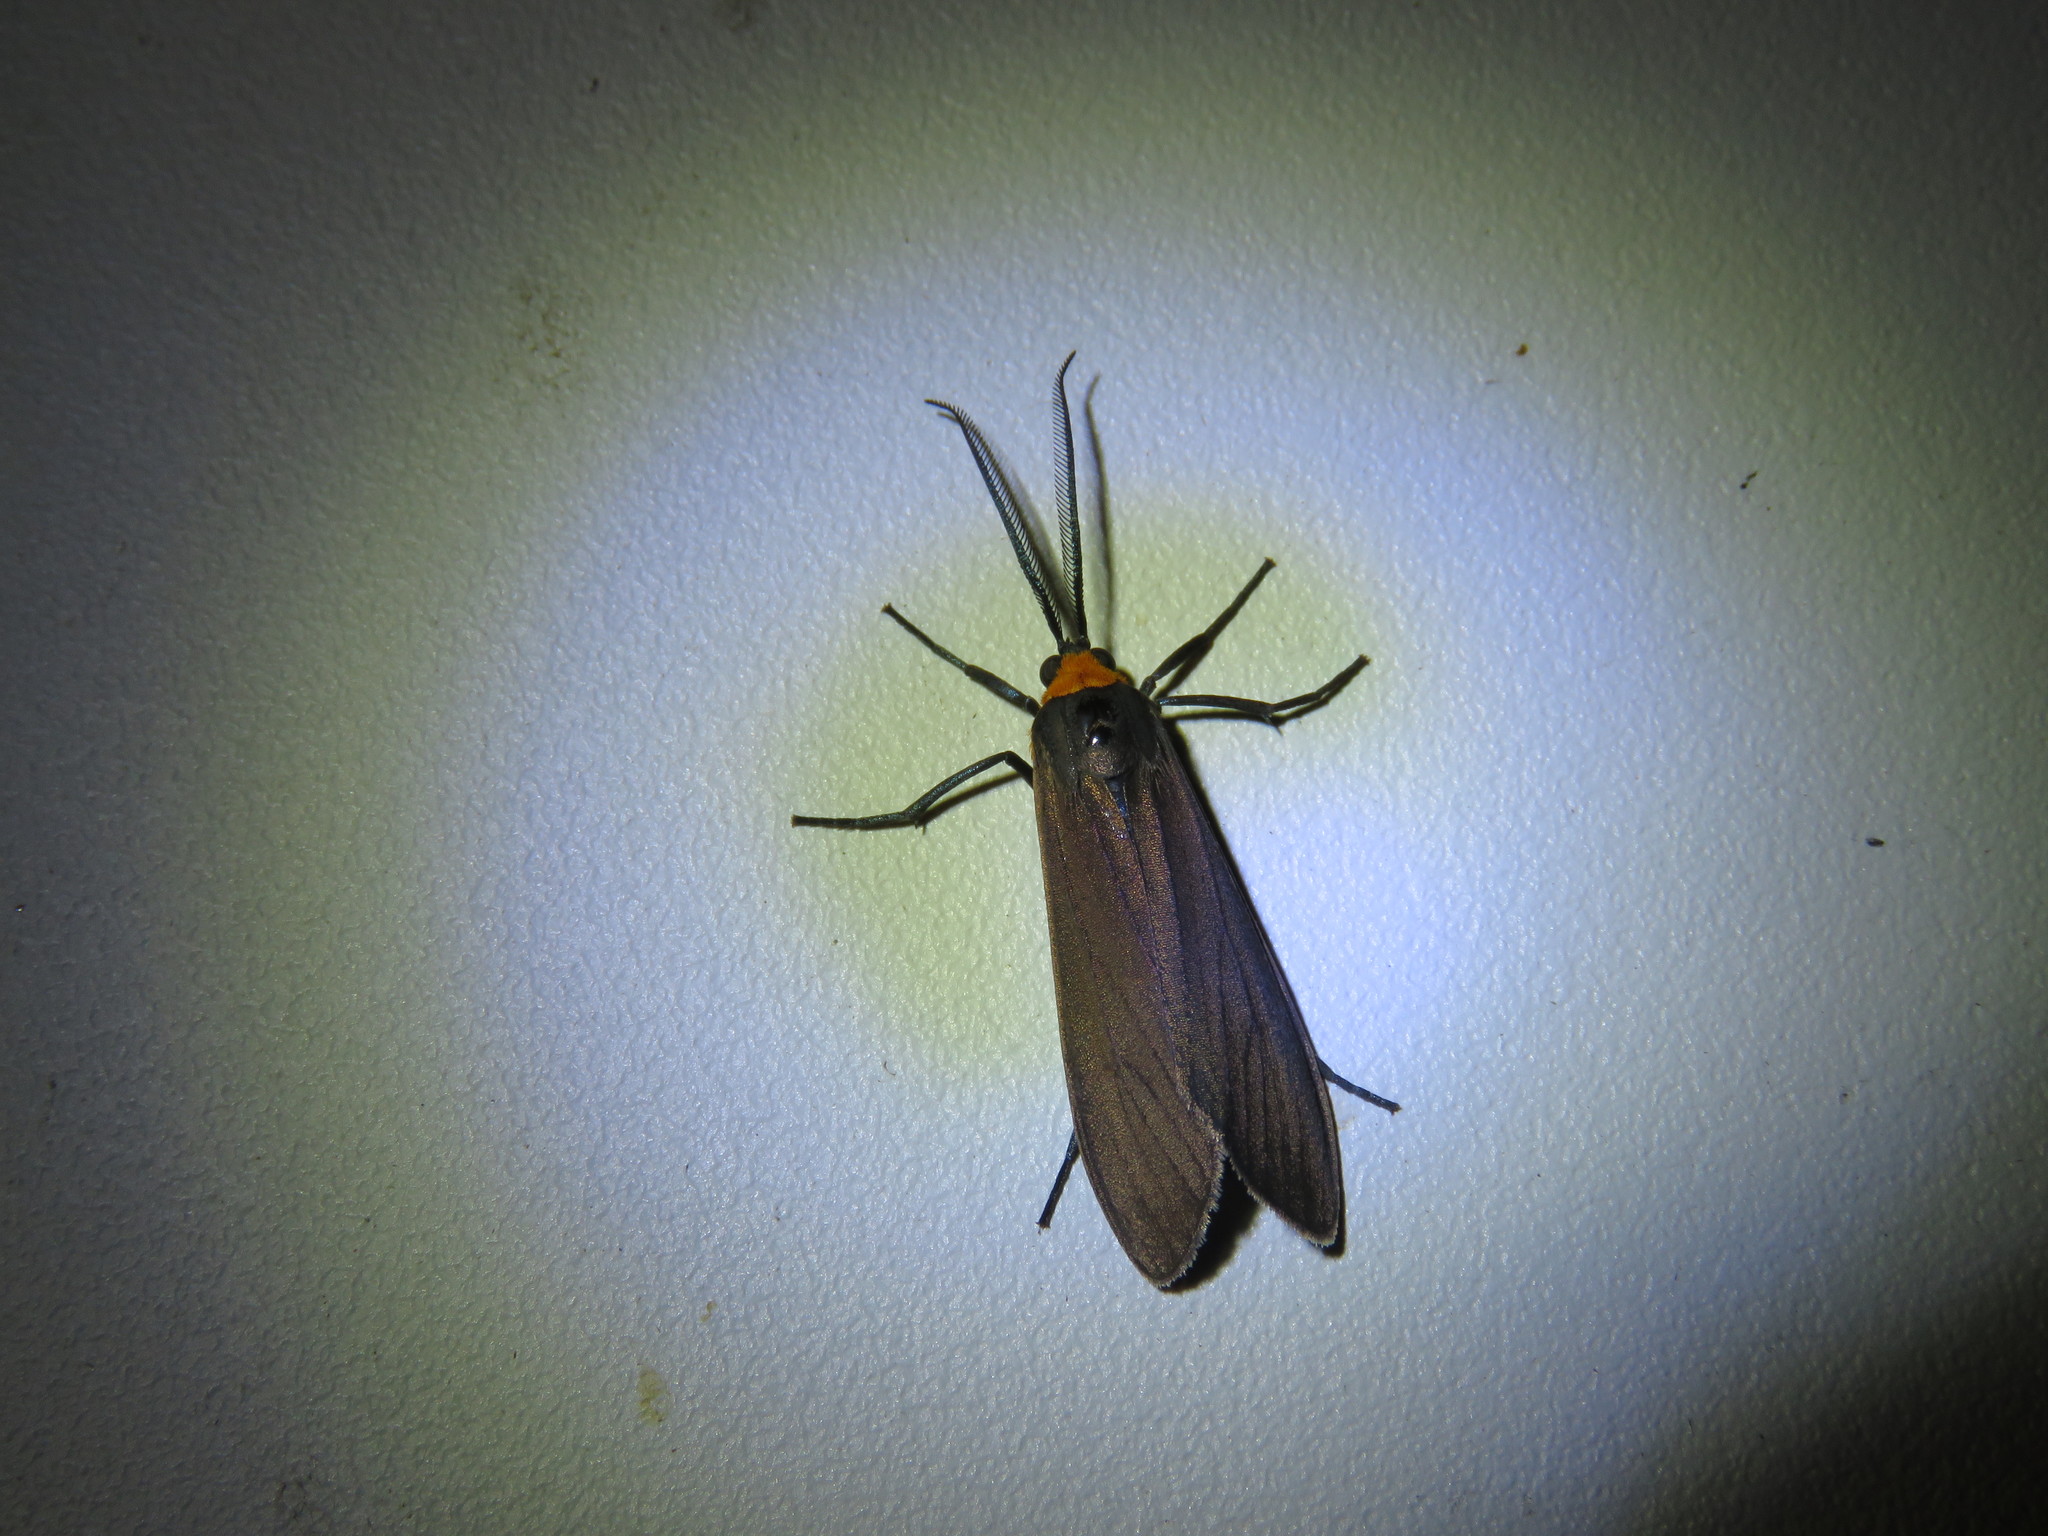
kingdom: Animalia
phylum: Arthropoda
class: Insecta
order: Lepidoptera
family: Erebidae
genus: Cisseps
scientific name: Cisseps fulvicollis
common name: Yellow-collared scape moth
